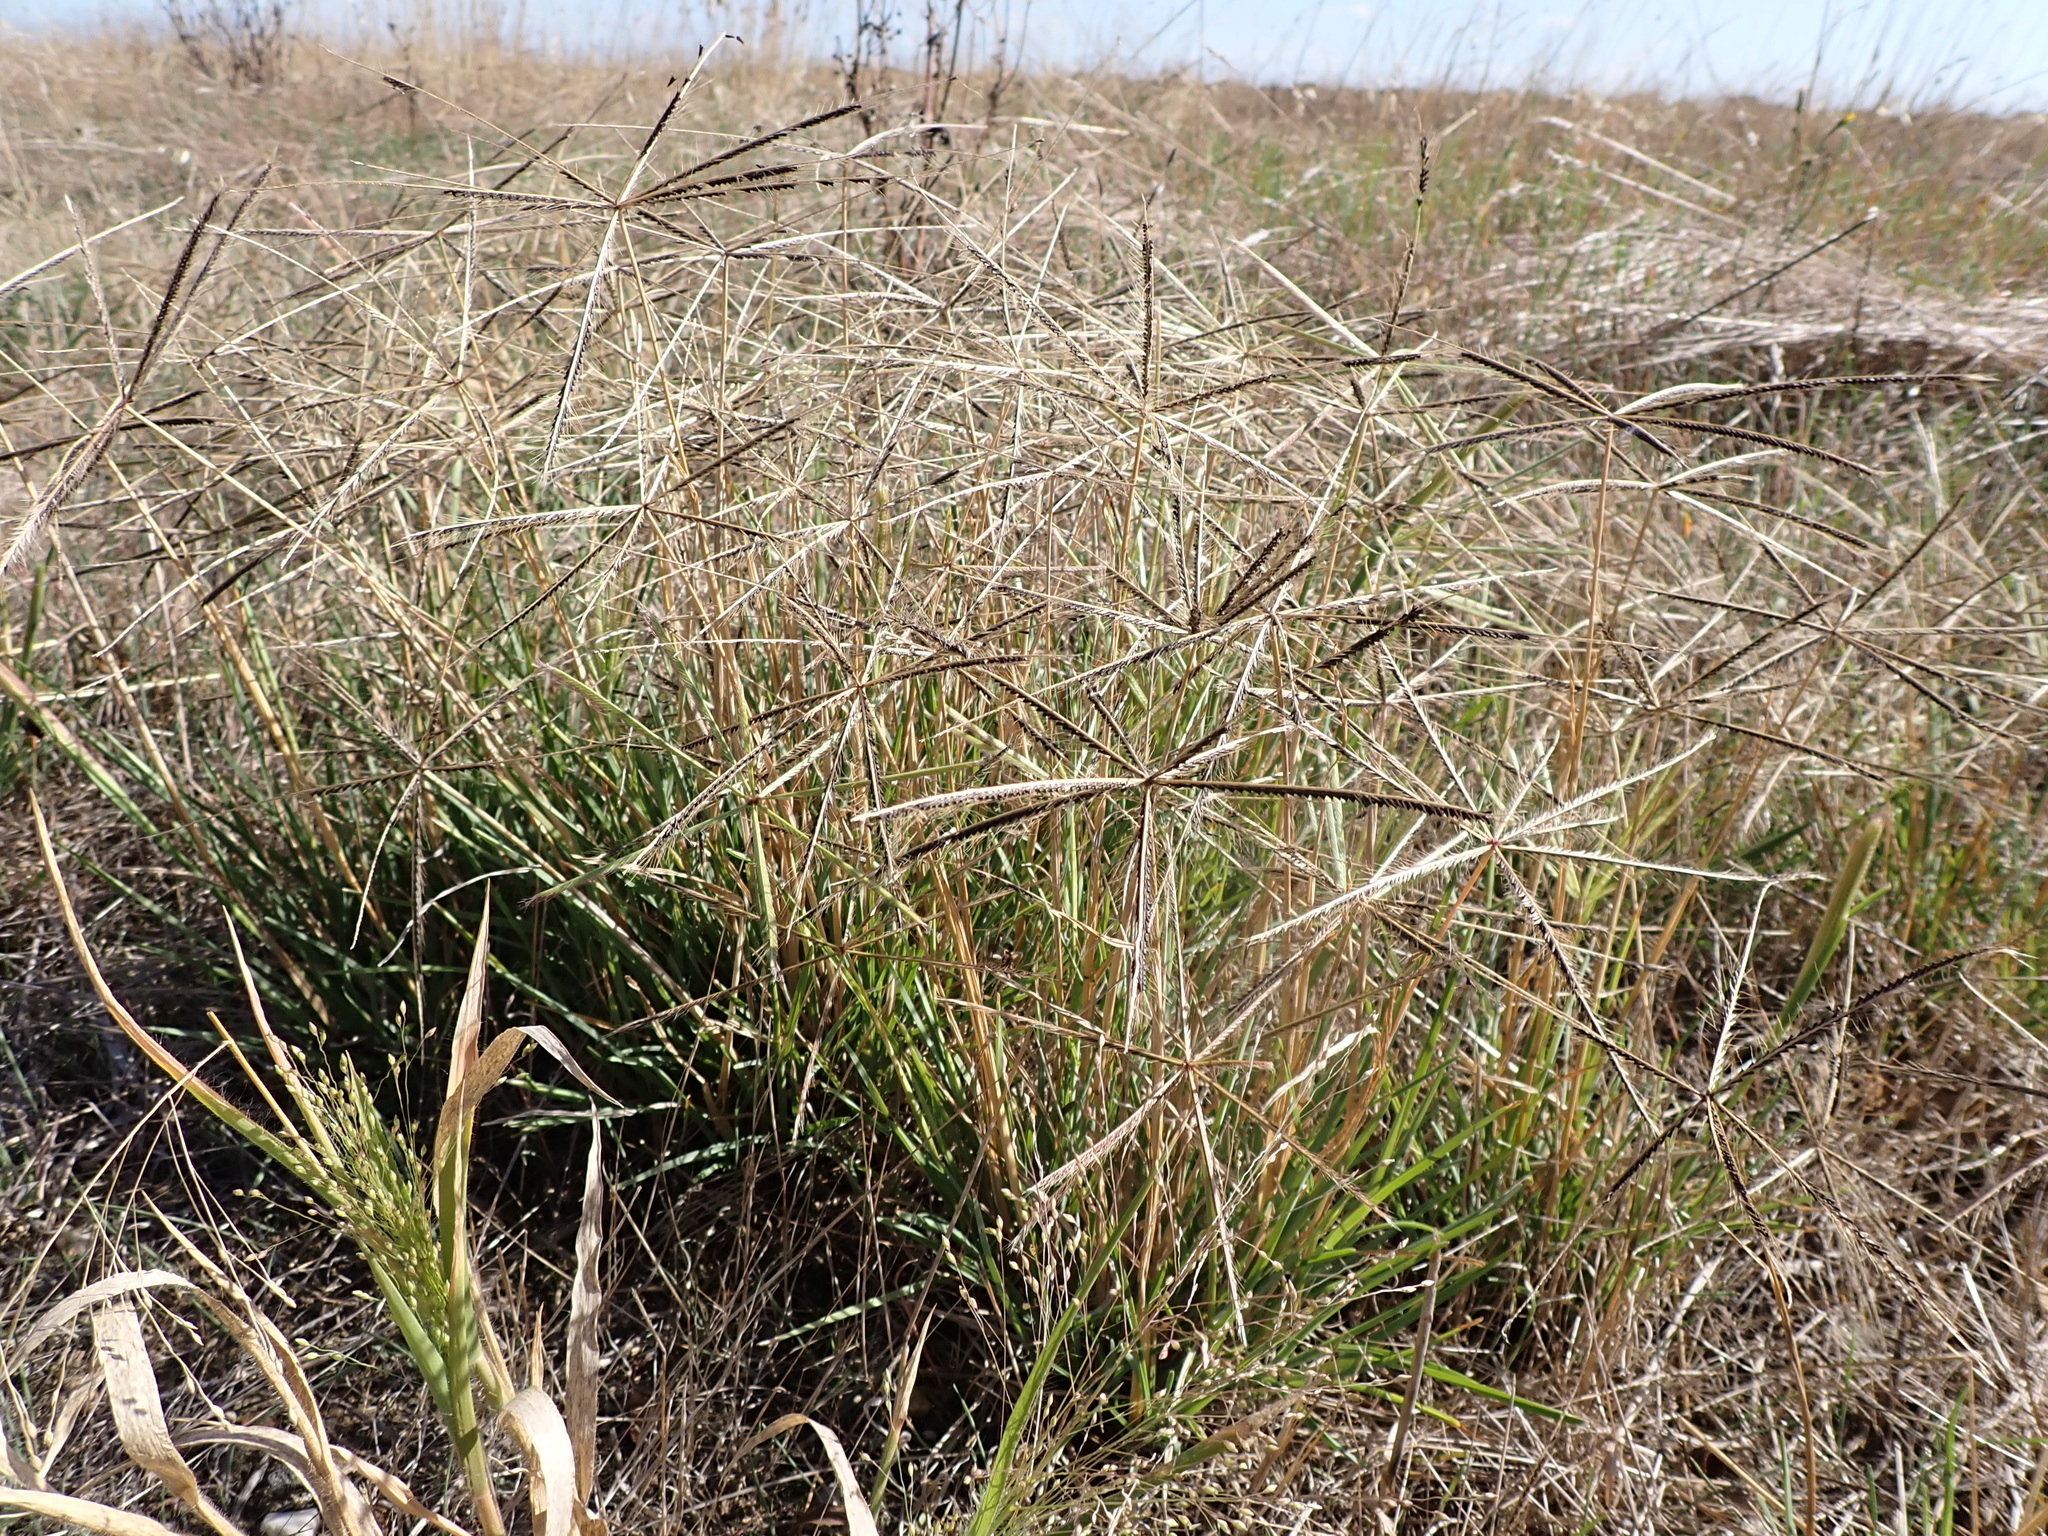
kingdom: Plantae
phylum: Tracheophyta
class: Liliopsida
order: Poales
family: Poaceae
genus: Chloris
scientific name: Chloris truncata
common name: Windmill-grass
